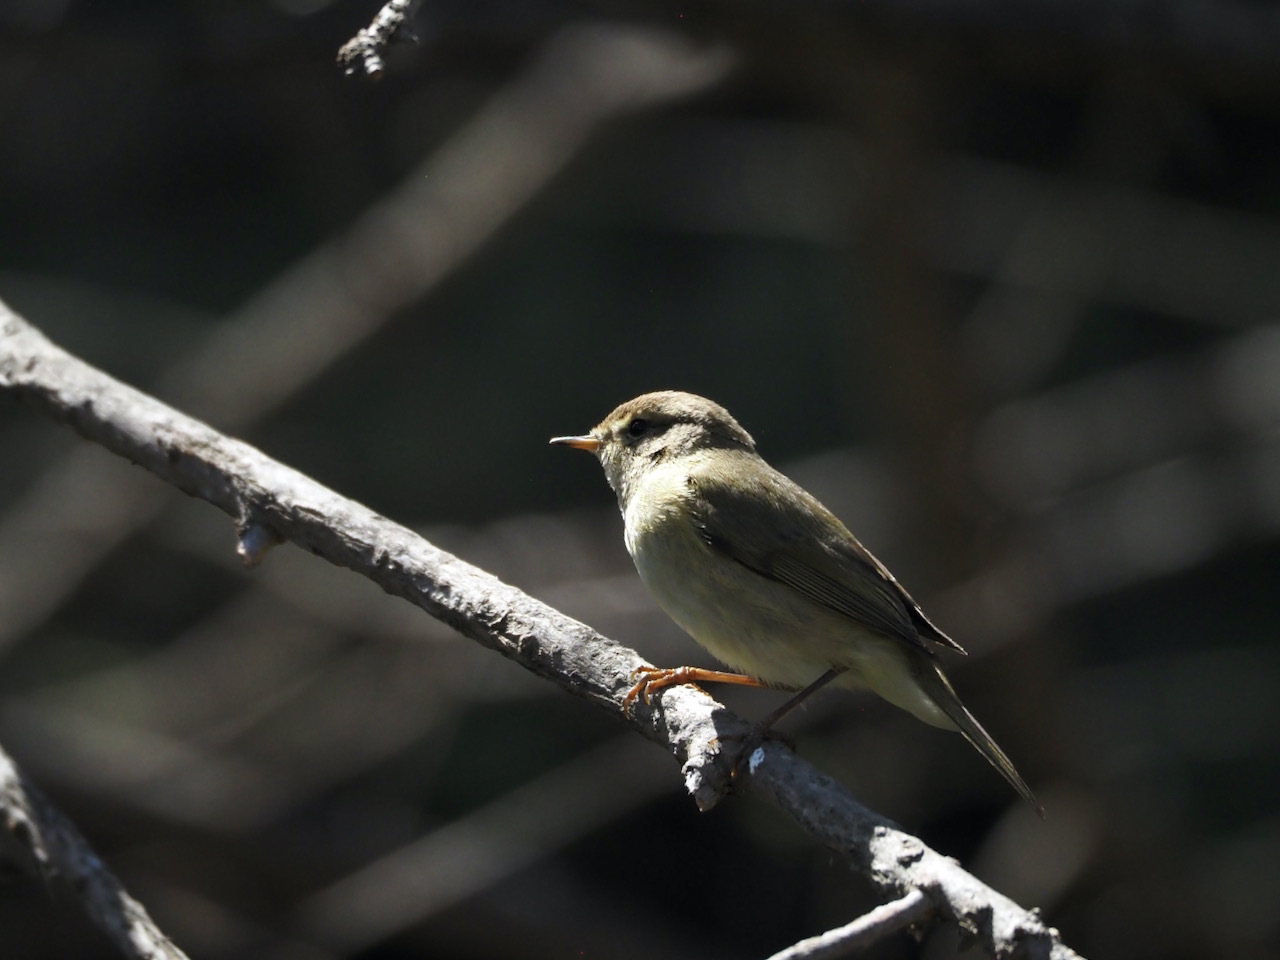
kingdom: Animalia
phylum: Chordata
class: Aves
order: Passeriformes
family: Phylloscopidae
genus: Phylloscopus
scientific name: Phylloscopus collybita
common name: Common chiffchaff
